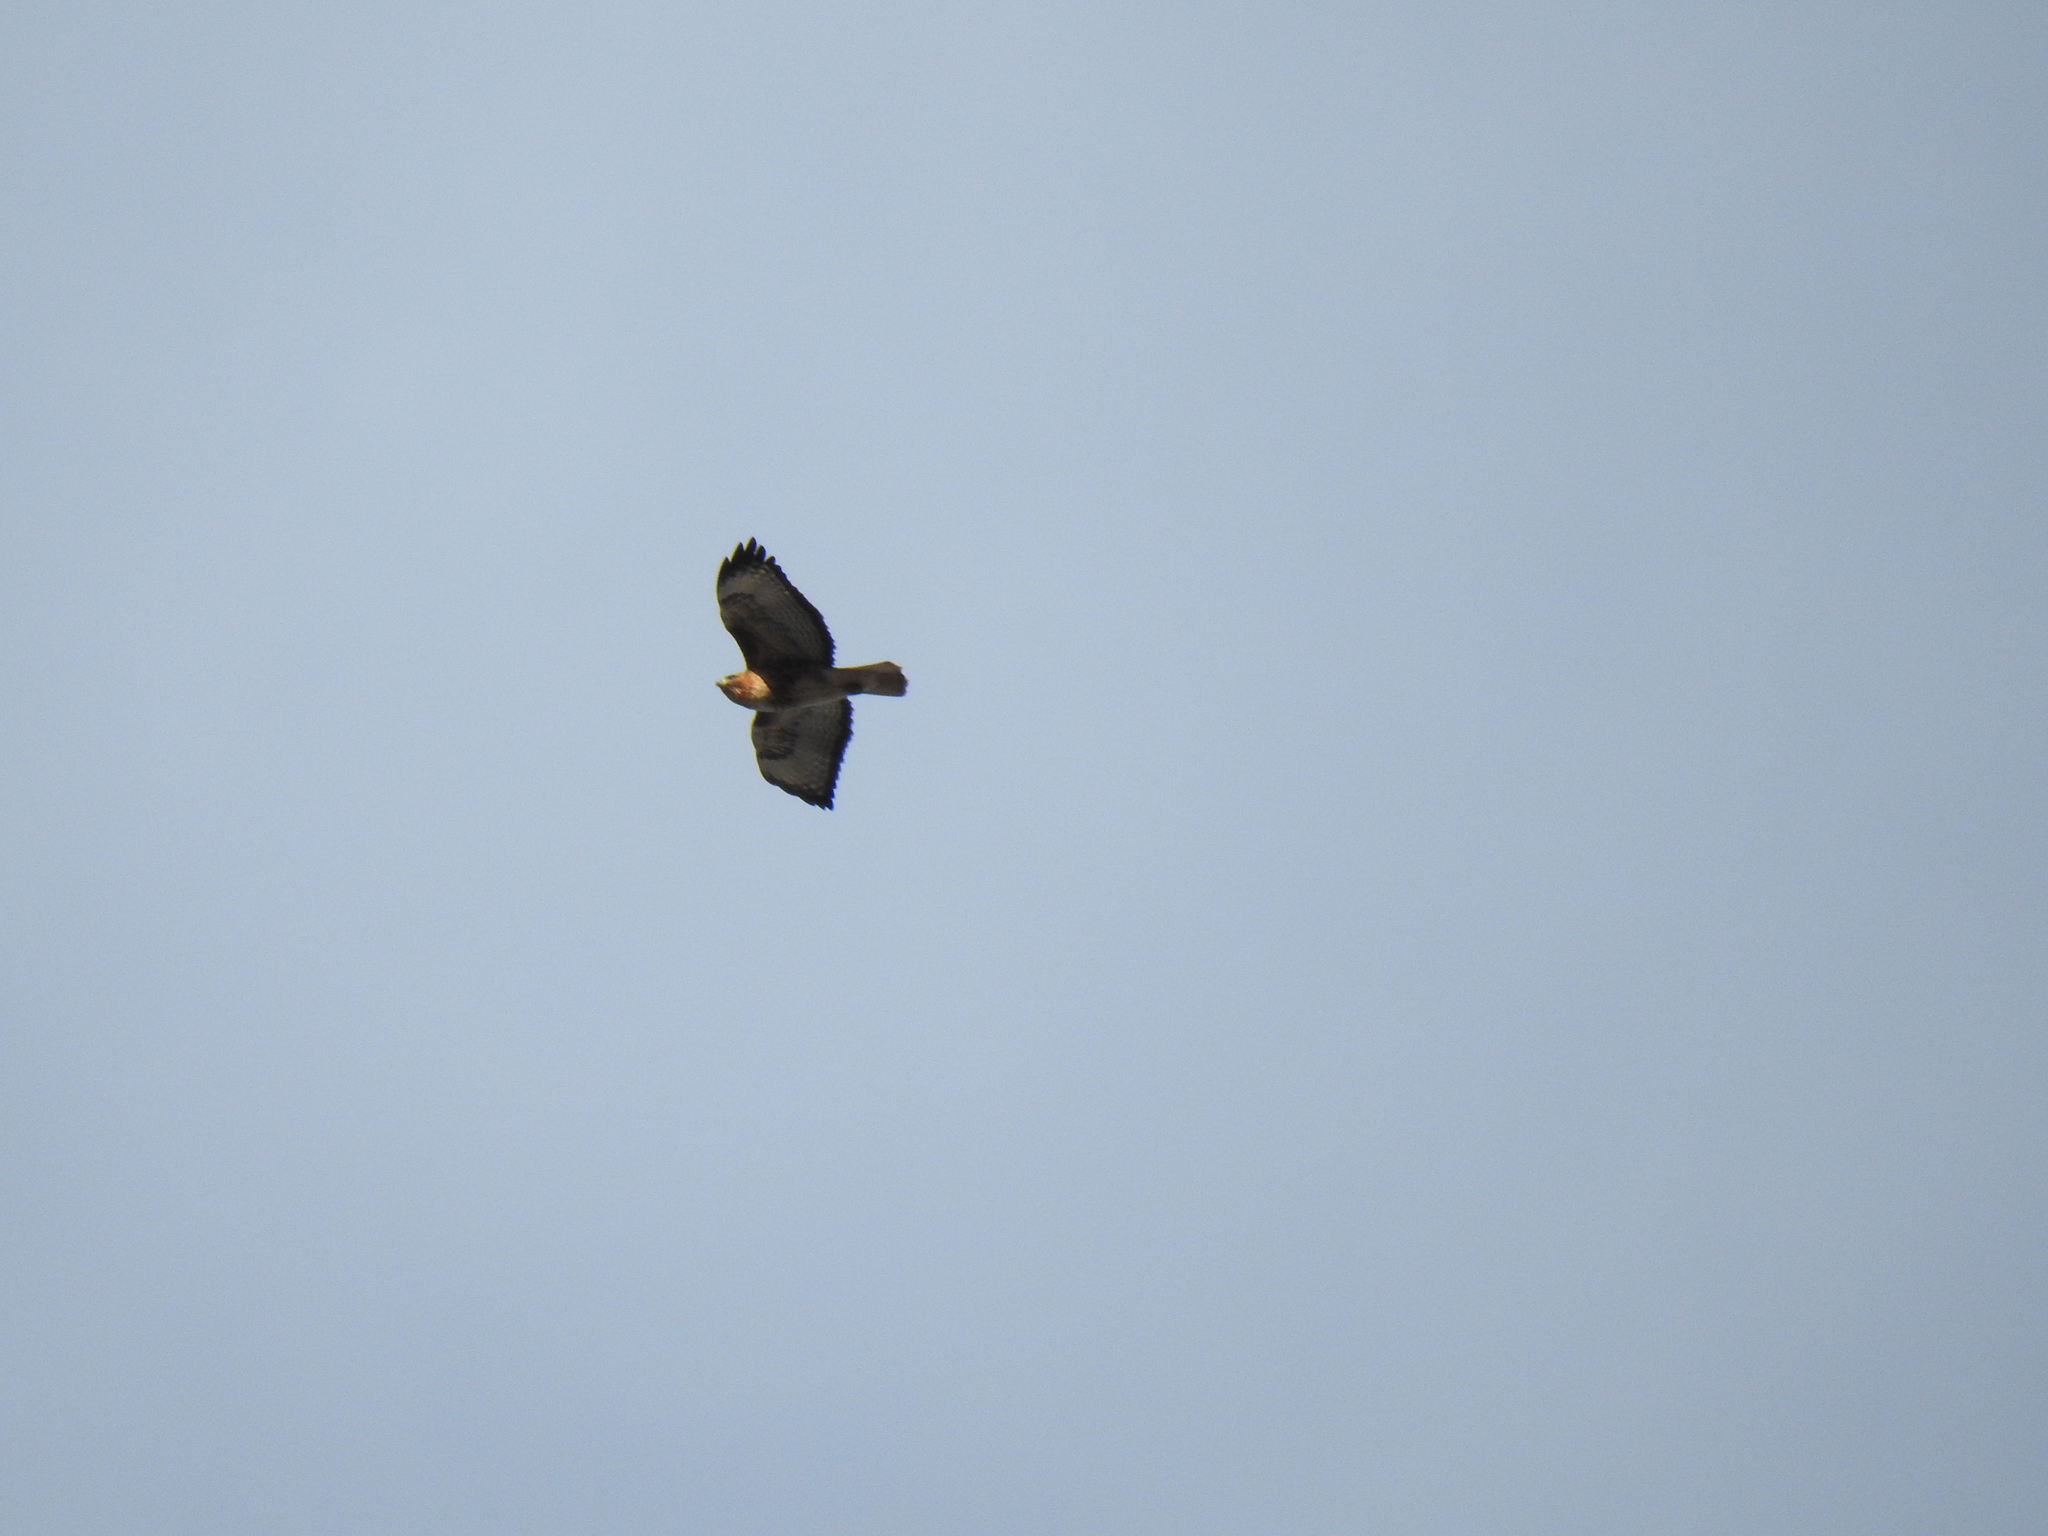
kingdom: Animalia
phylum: Chordata
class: Aves
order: Accipitriformes
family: Accipitridae
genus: Buteo
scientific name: Buteo jamaicensis
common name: Red-tailed hawk
